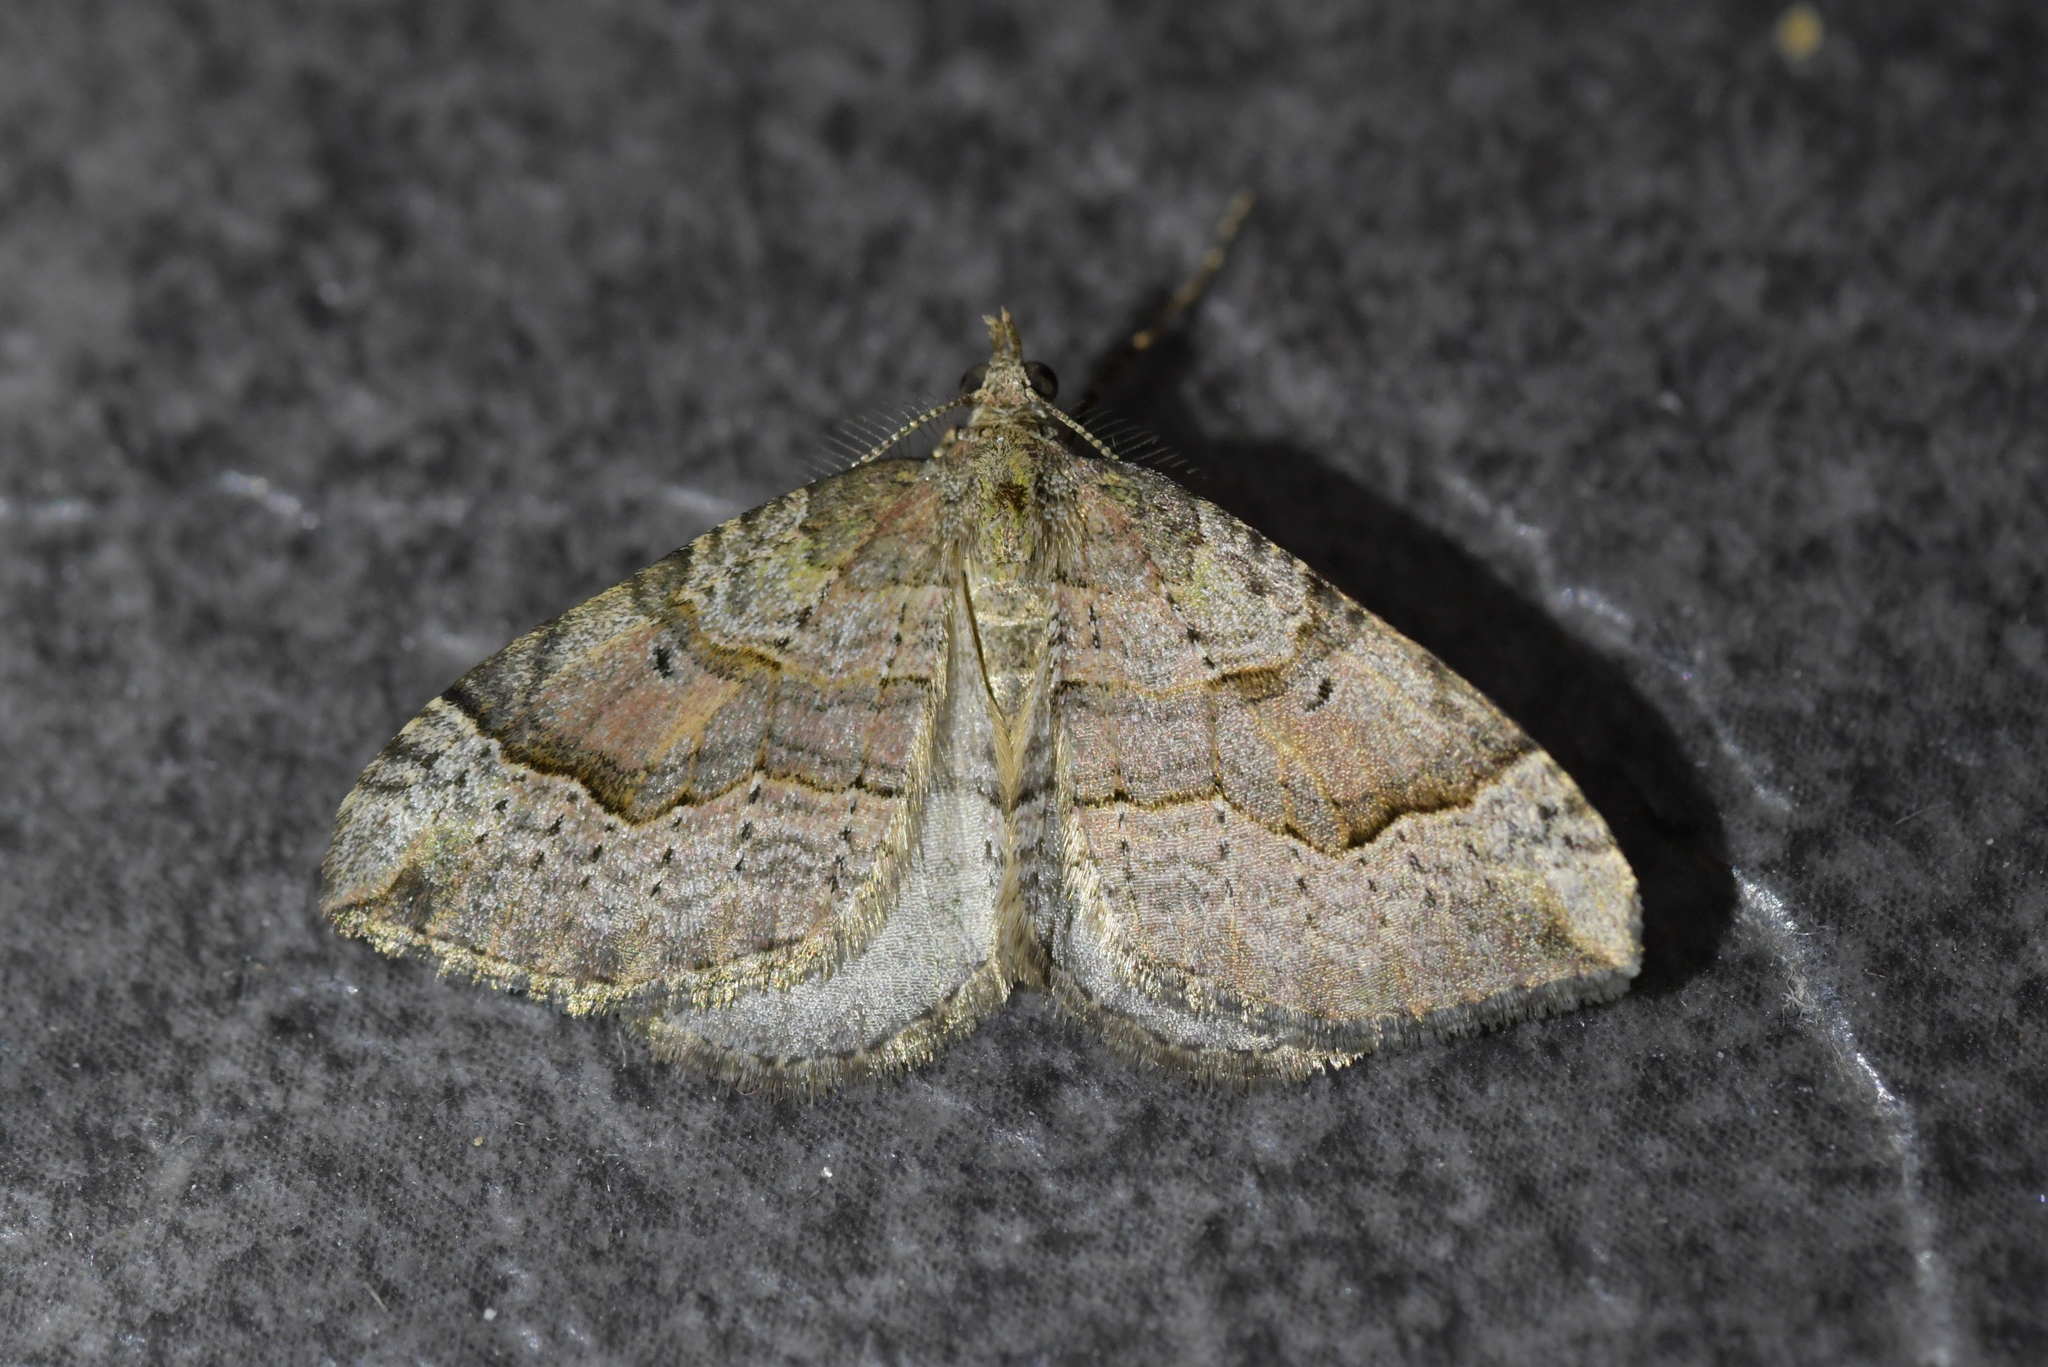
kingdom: Animalia
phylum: Arthropoda
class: Insecta
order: Lepidoptera
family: Geometridae
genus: Epyaxa
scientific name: Epyaxa rosearia
